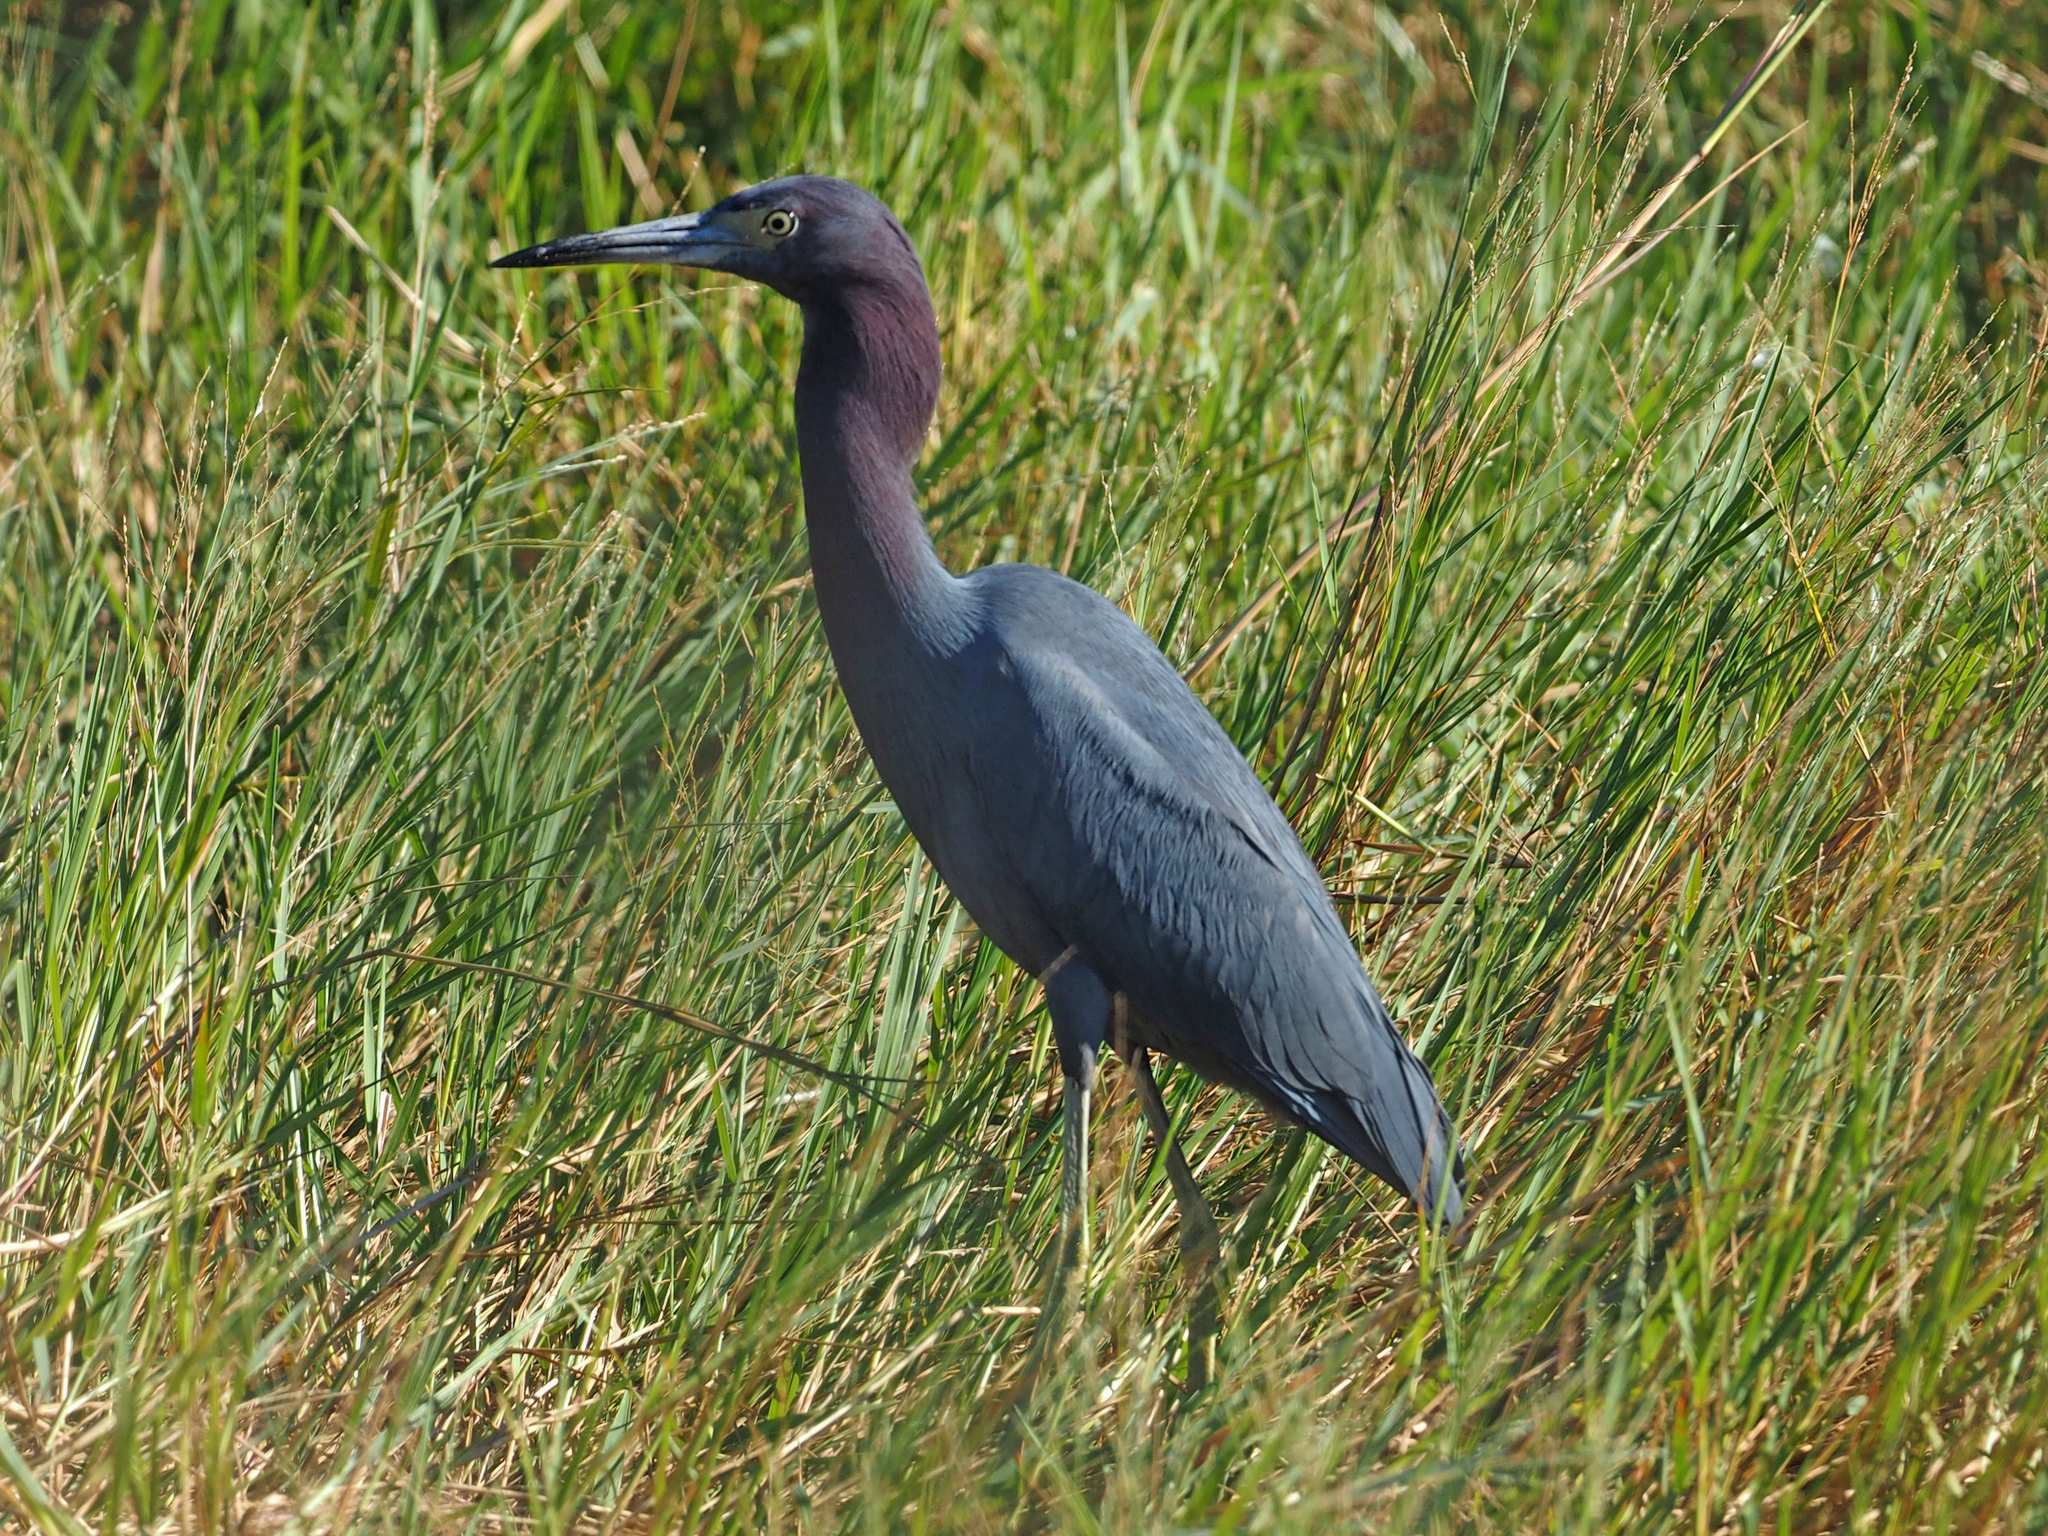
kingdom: Animalia
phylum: Chordata
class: Aves
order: Pelecaniformes
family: Ardeidae
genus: Egretta
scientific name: Egretta caerulea
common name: Little blue heron
